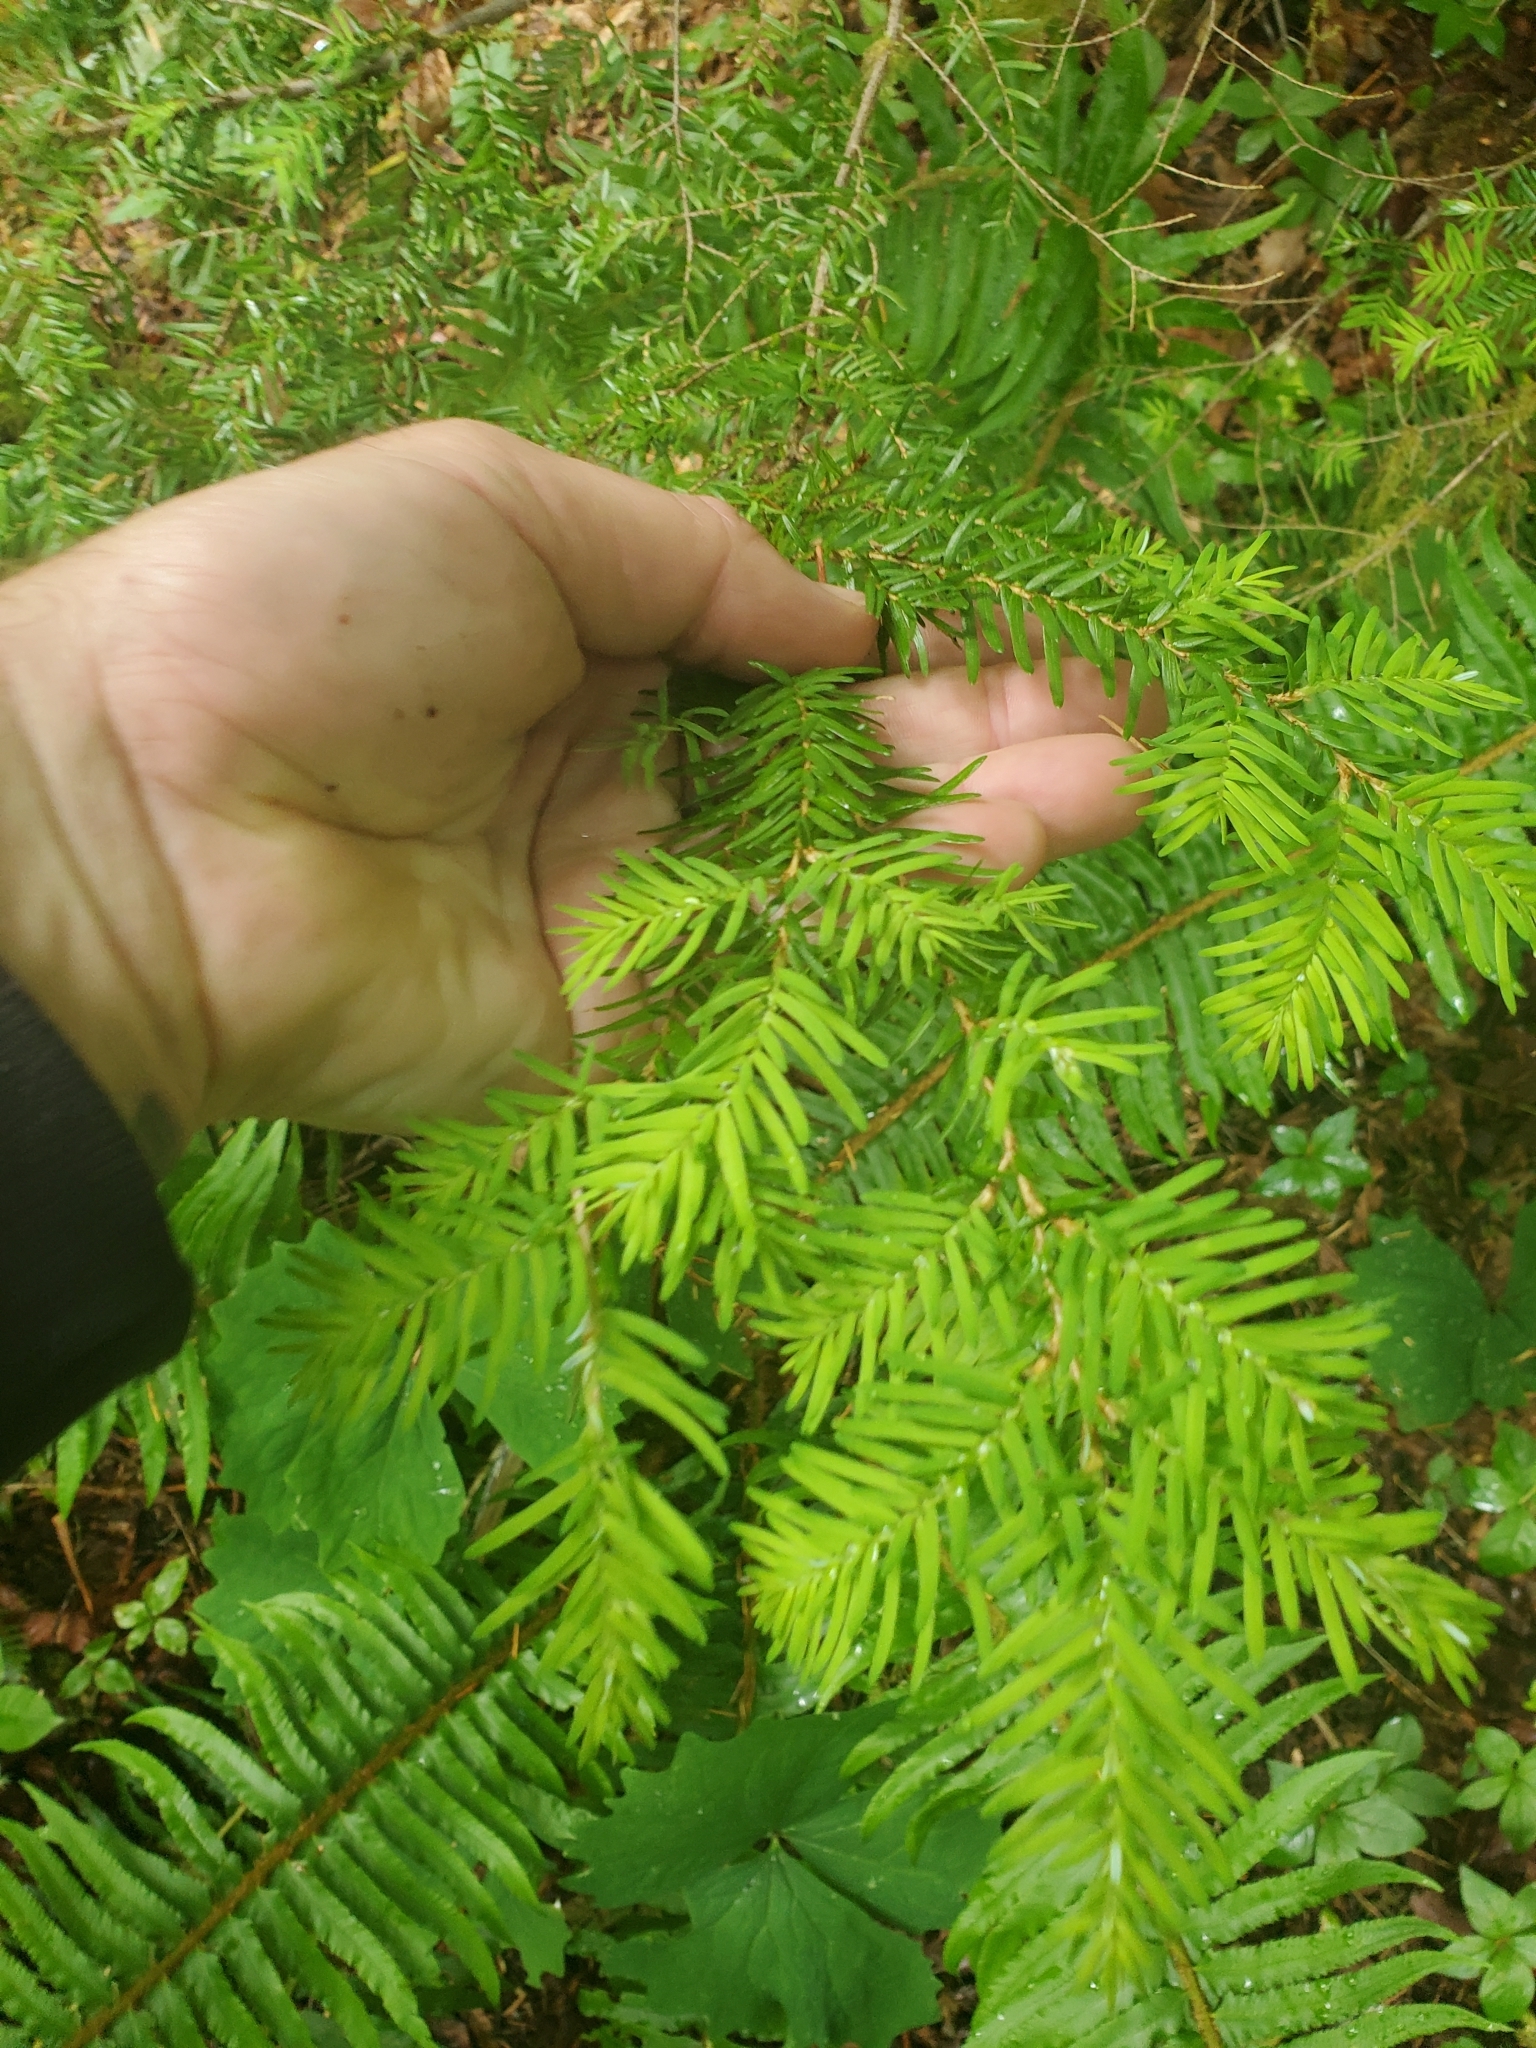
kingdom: Plantae
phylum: Tracheophyta
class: Pinopsida
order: Pinales
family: Pinaceae
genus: Tsuga
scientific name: Tsuga heterophylla
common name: Western hemlock
